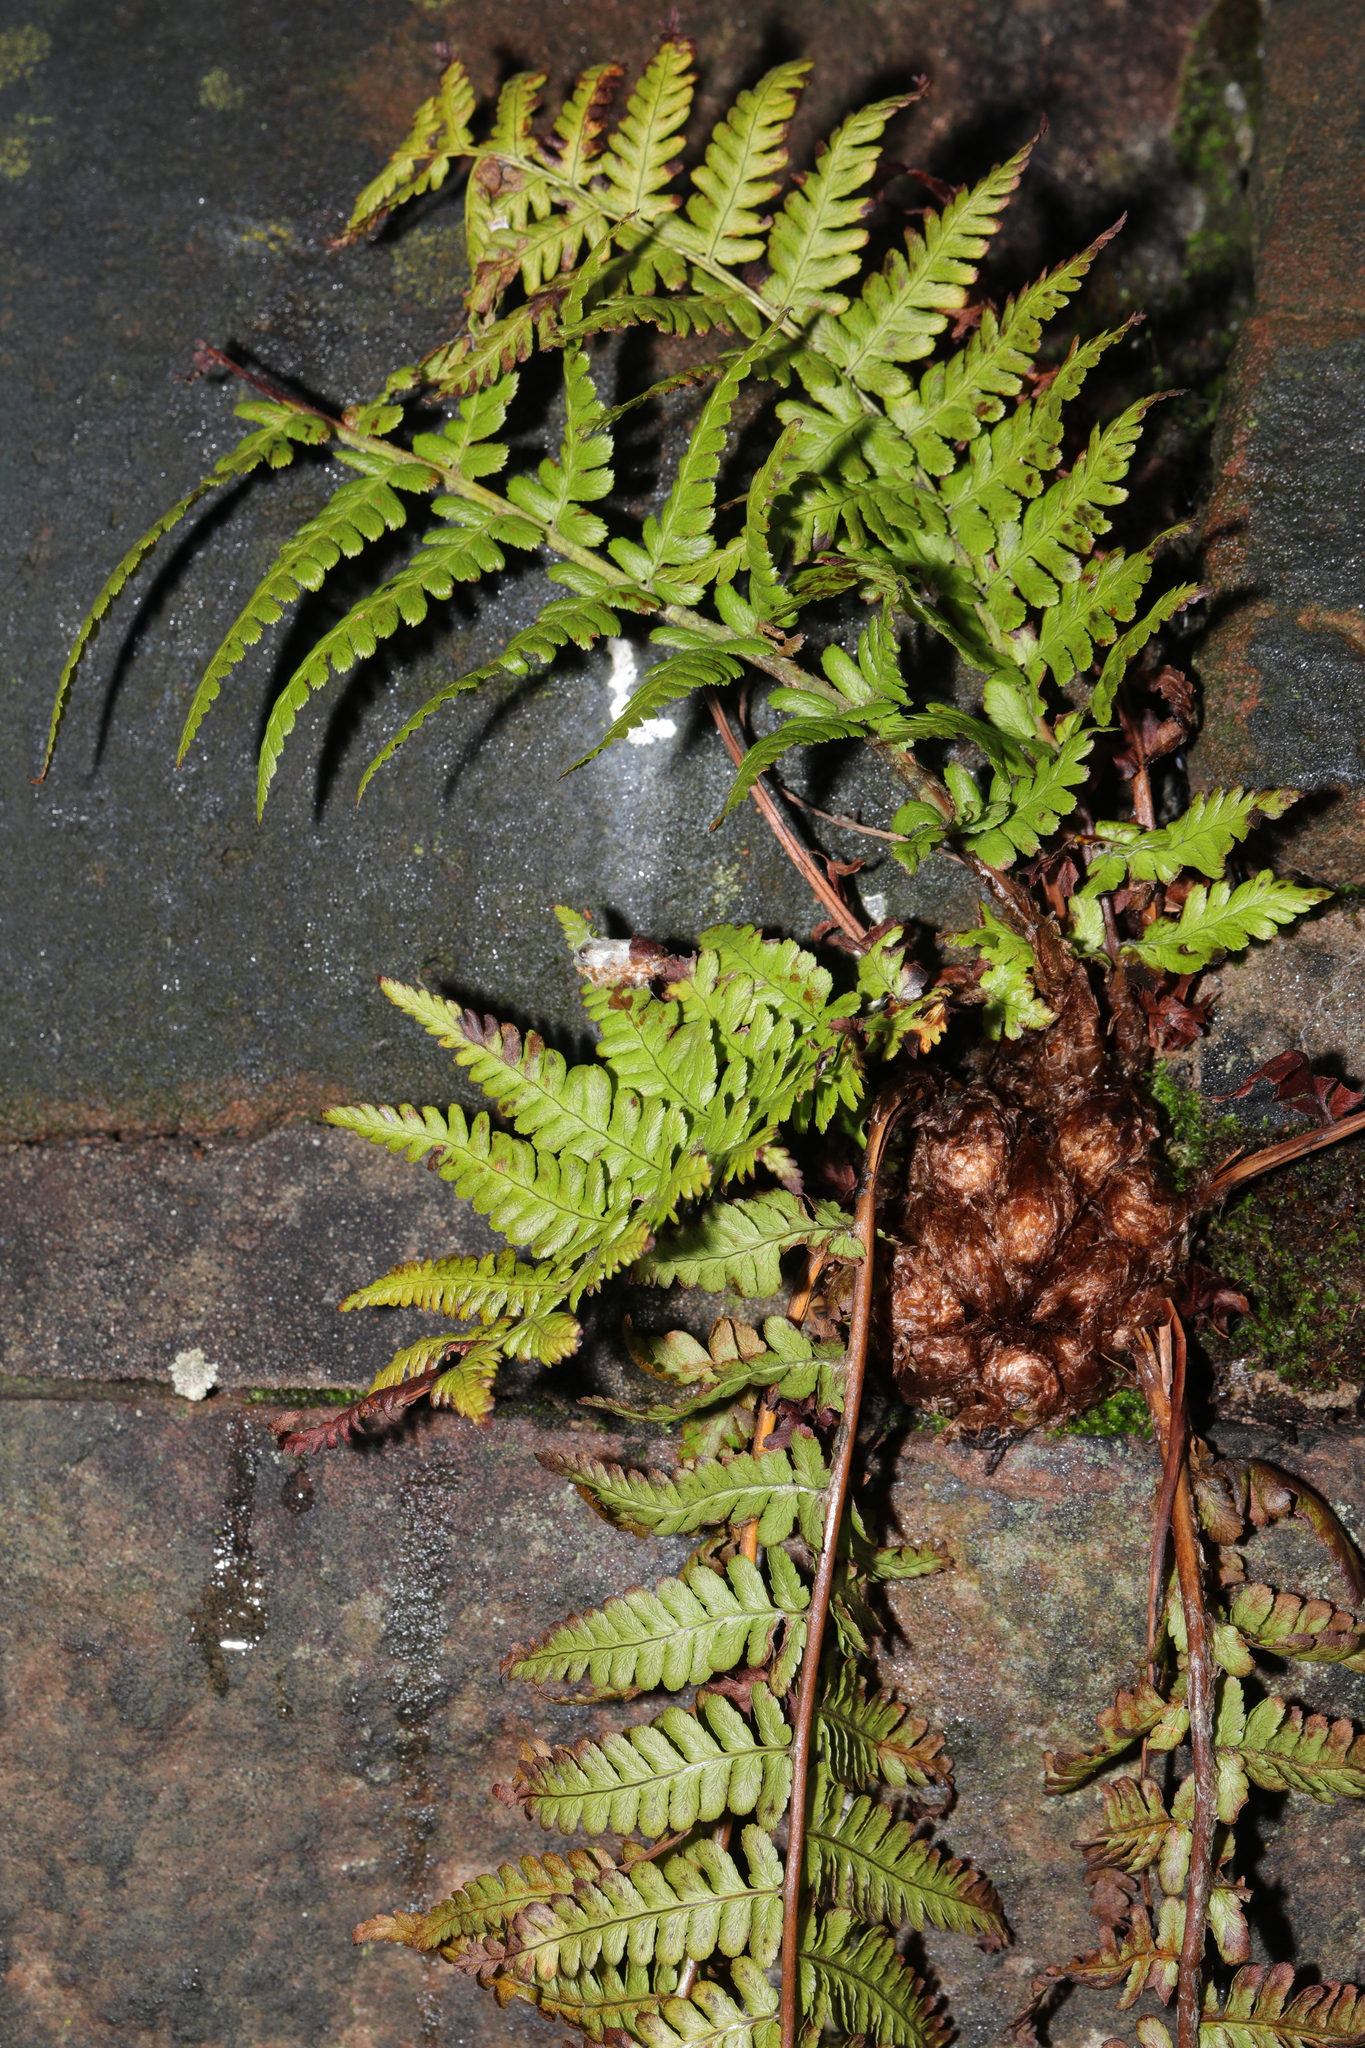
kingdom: Plantae
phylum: Tracheophyta
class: Polypodiopsida
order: Polypodiales
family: Dryopteridaceae
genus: Dryopteris
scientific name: Dryopteris filix-mas
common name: Male fern
